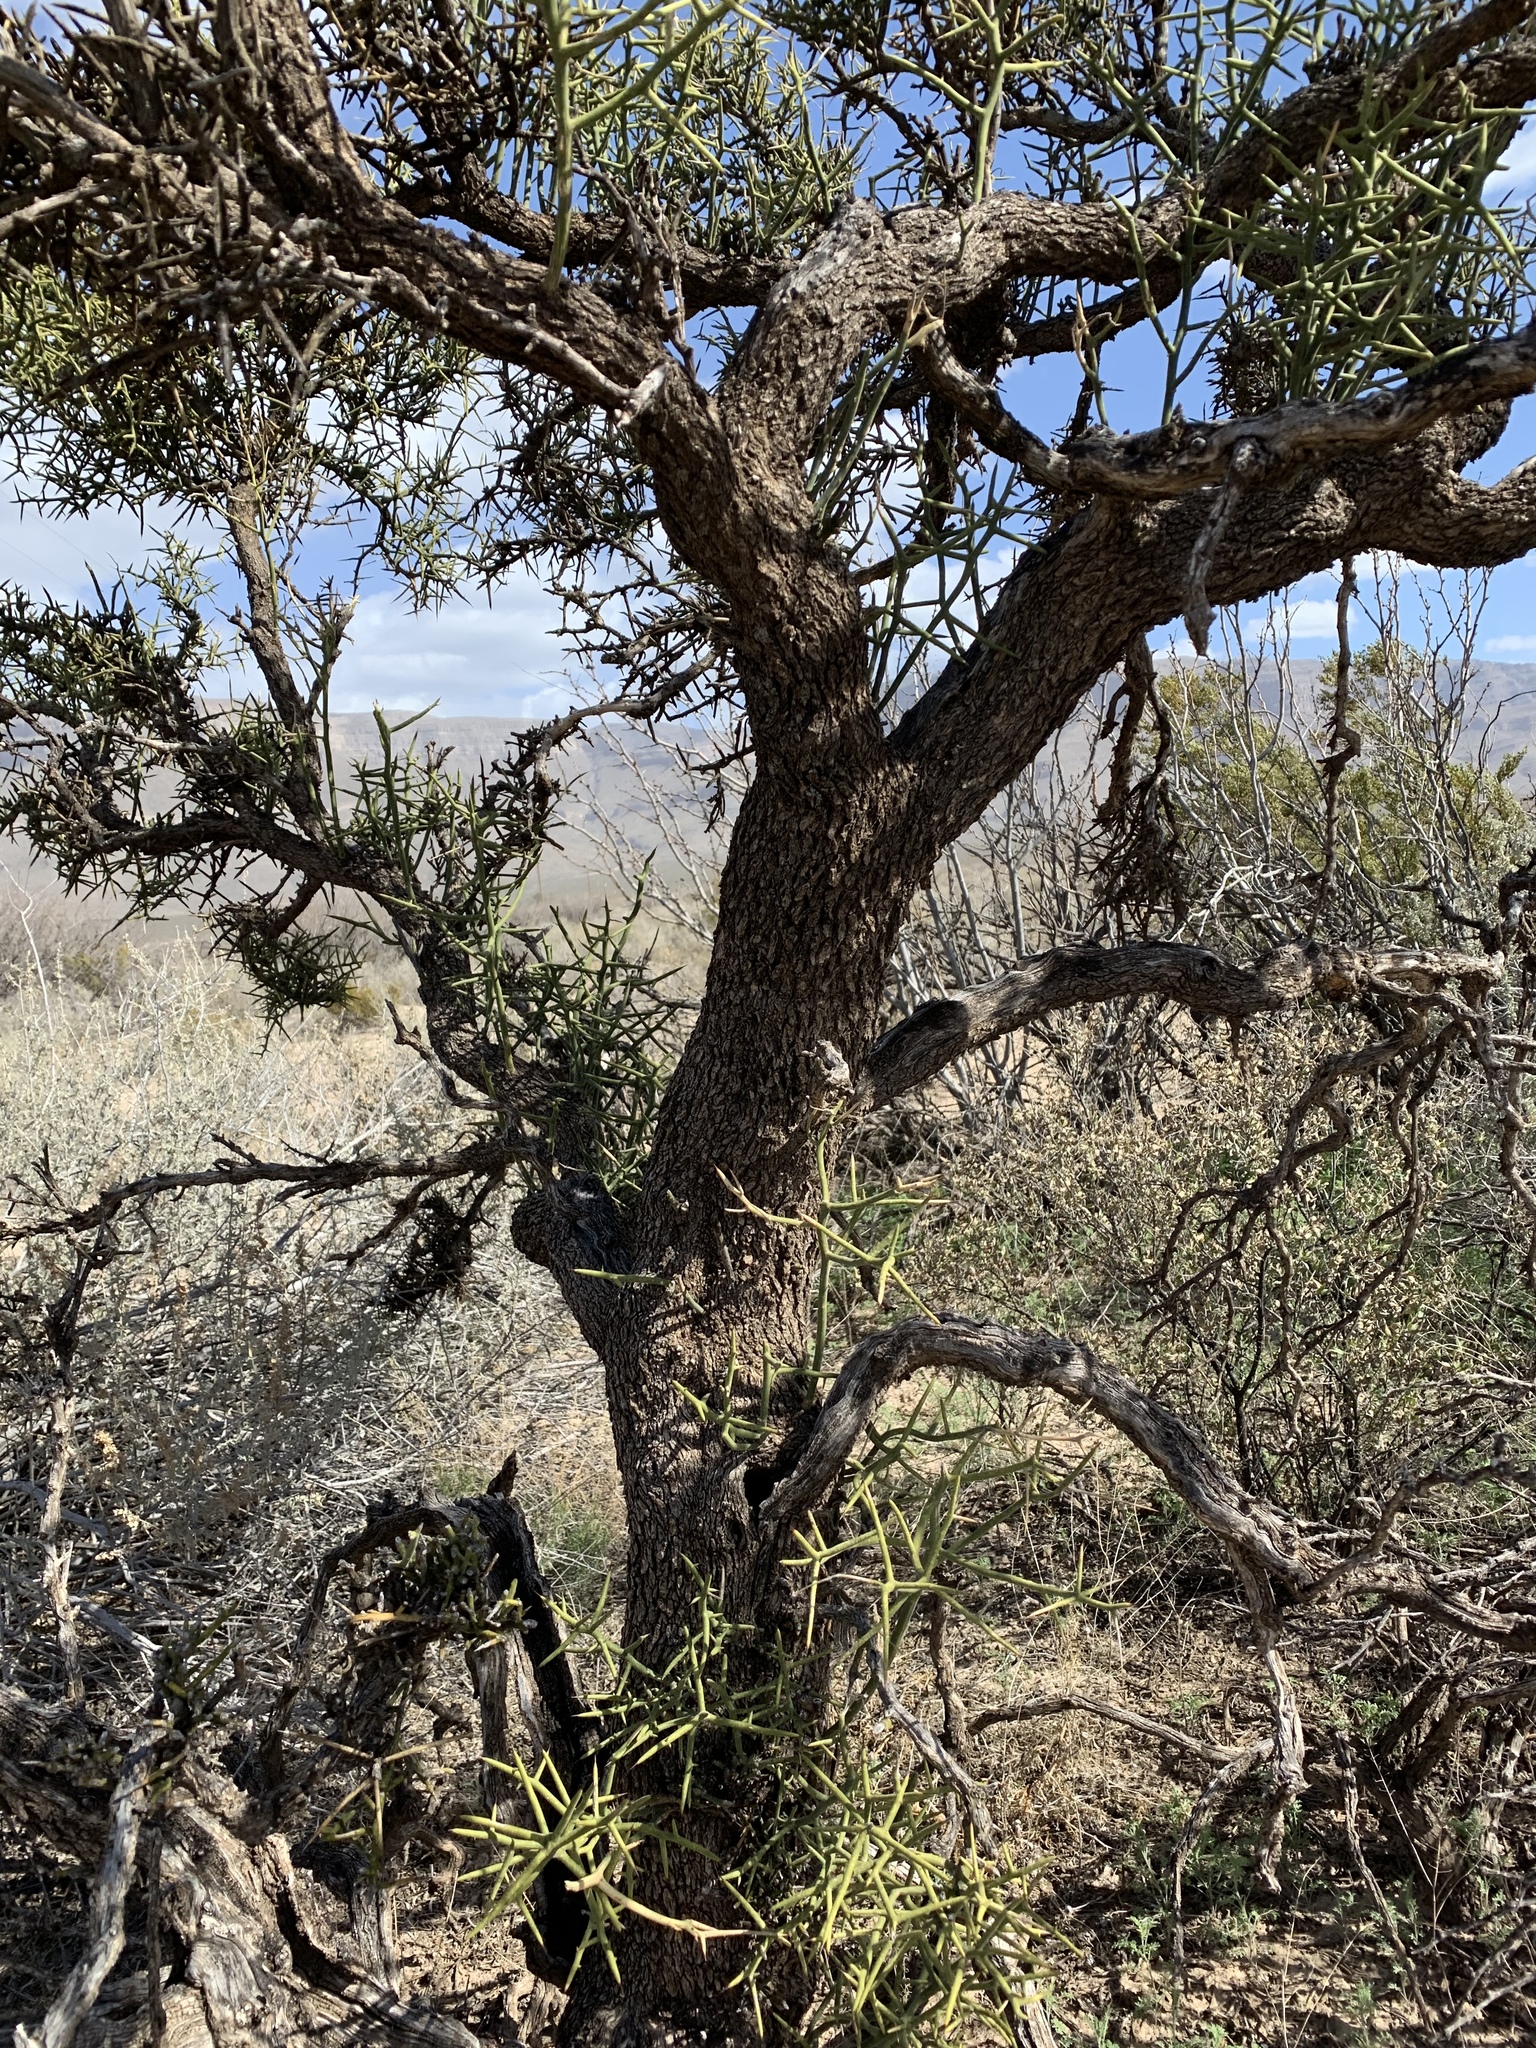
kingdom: Plantae
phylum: Tracheophyta
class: Magnoliopsida
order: Brassicales
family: Koeberliniaceae
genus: Koeberlinia
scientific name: Koeberlinia spinosa
